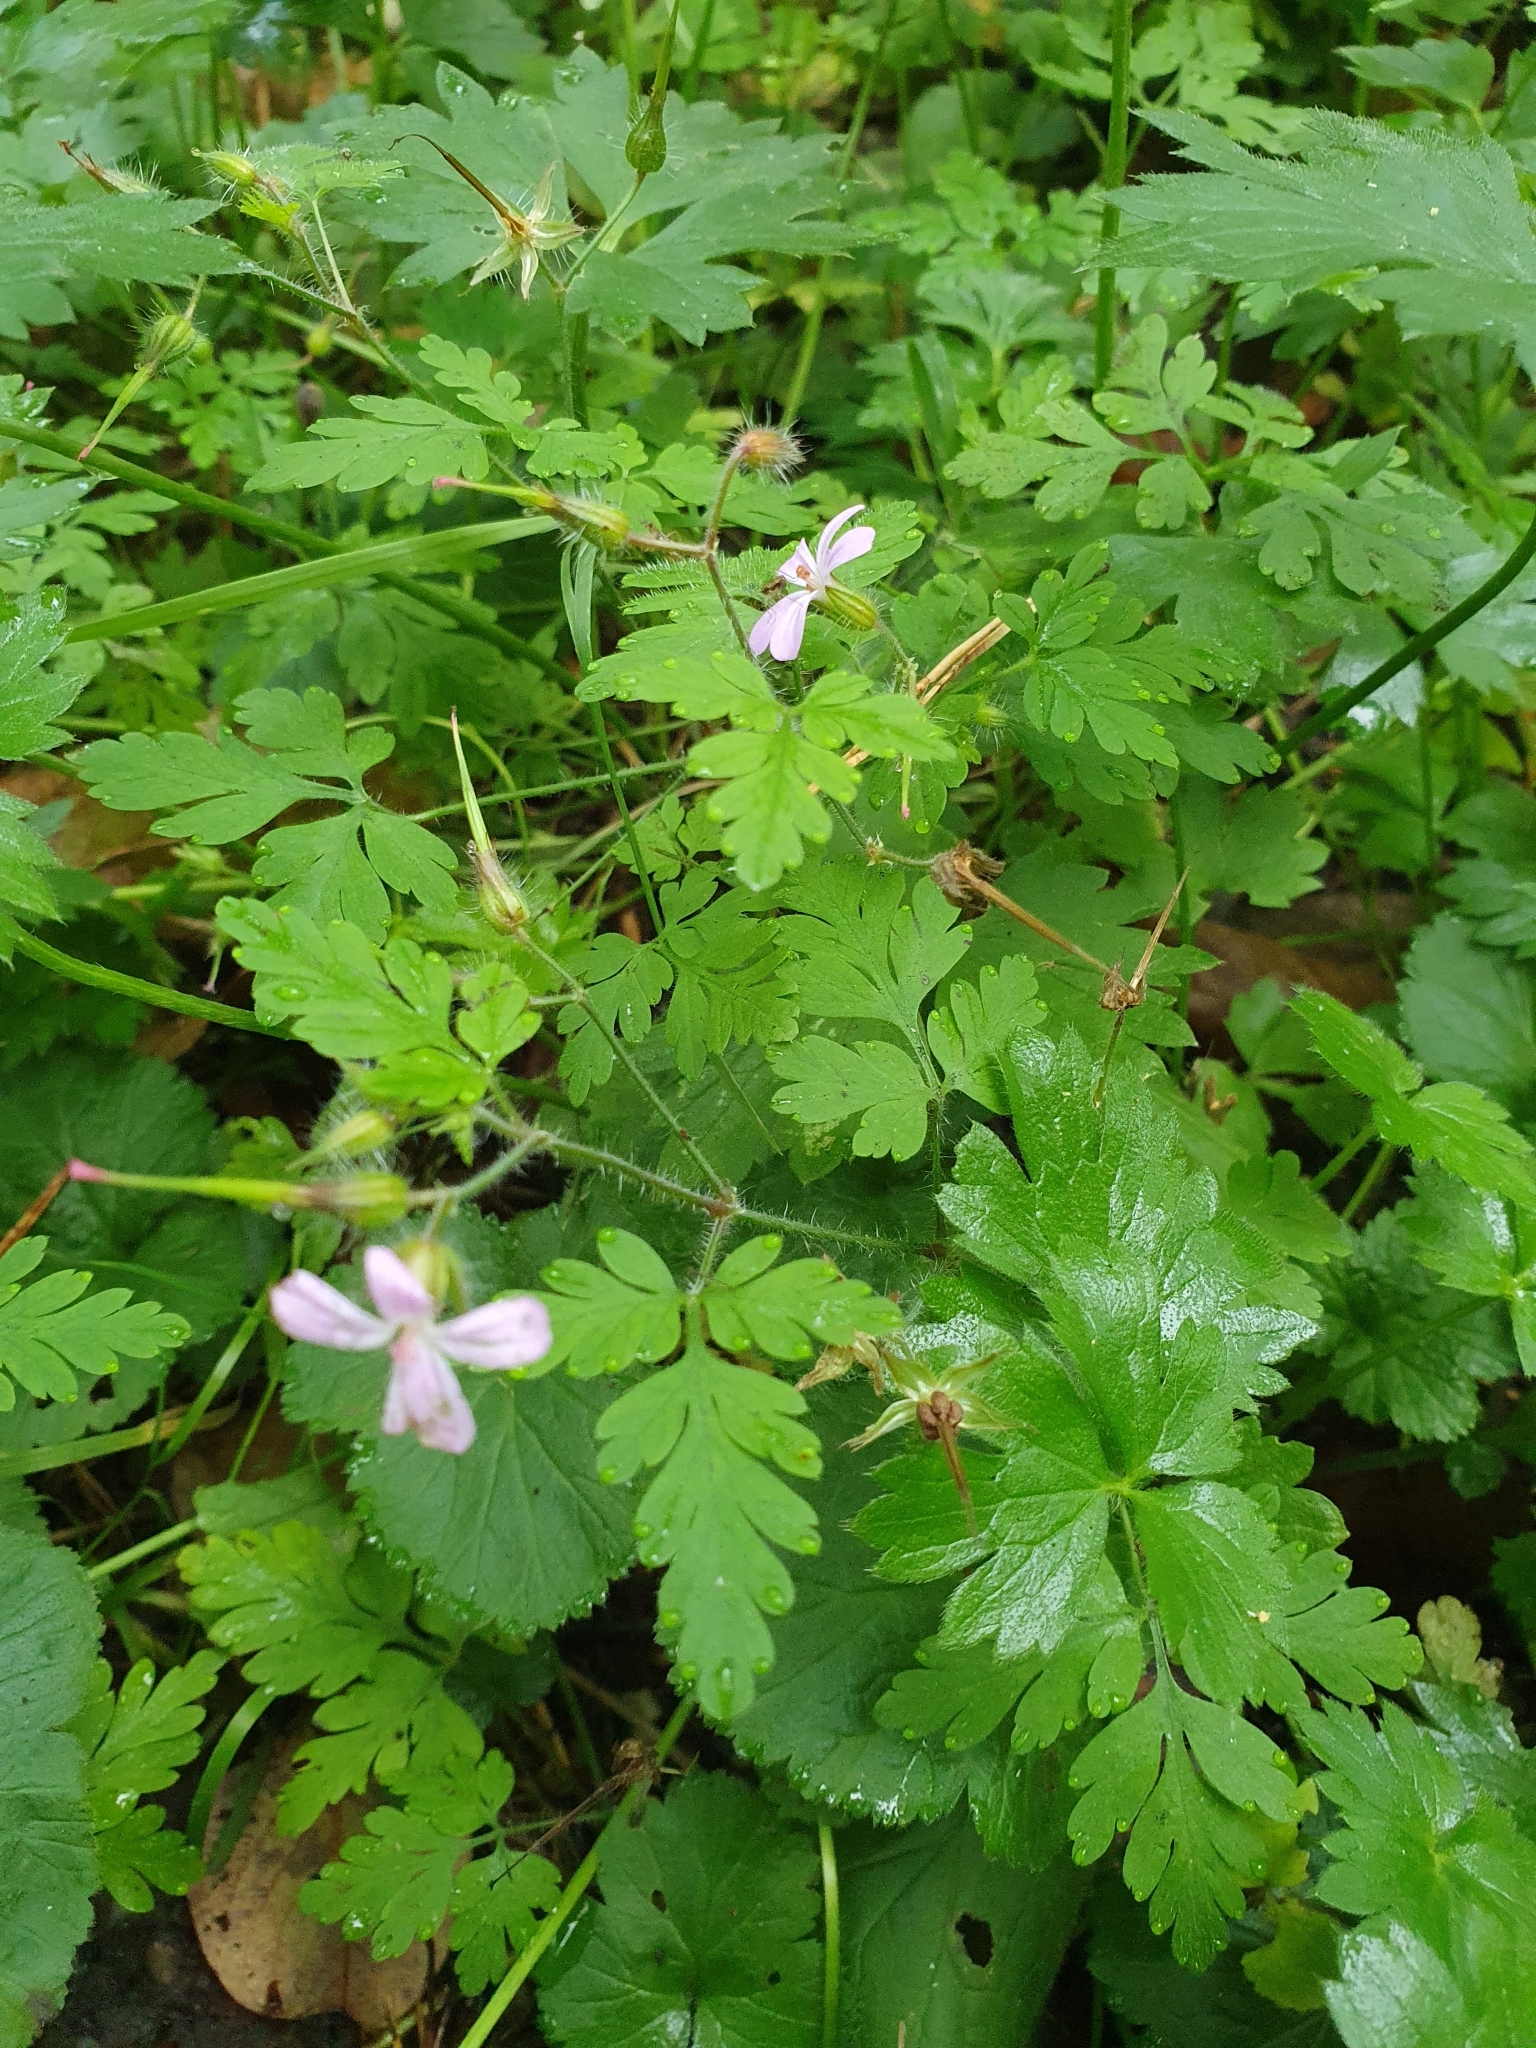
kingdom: Plantae
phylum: Tracheophyta
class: Magnoliopsida
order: Geraniales
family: Geraniaceae
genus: Geranium
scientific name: Geranium robertianum
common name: Herb-robert
